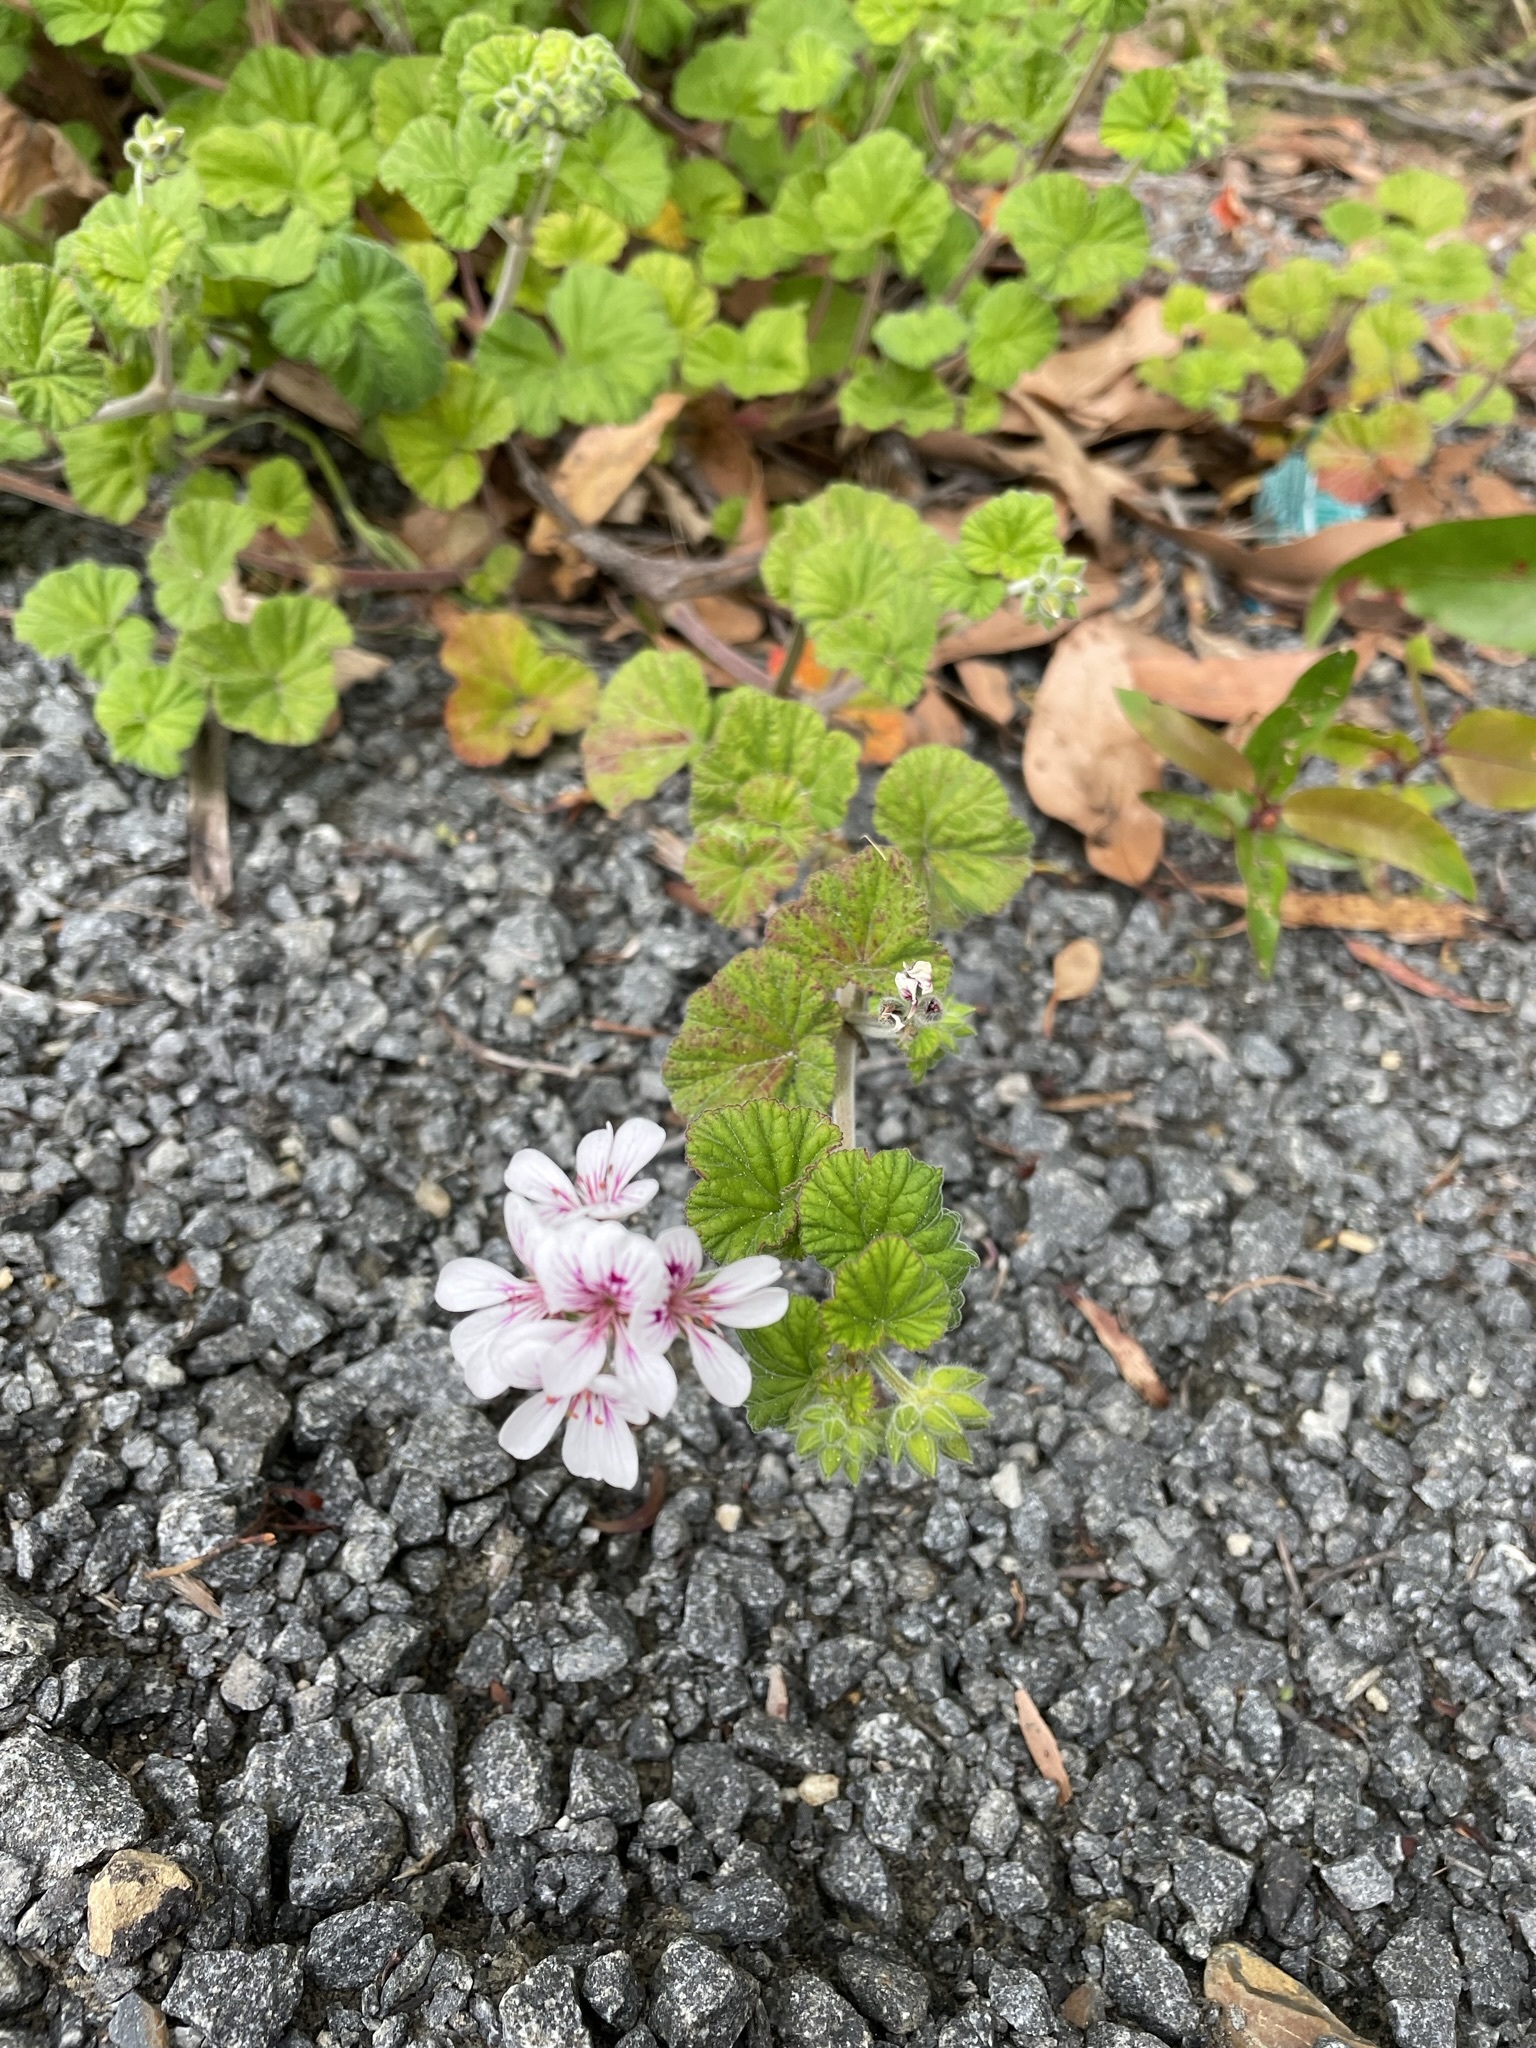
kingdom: Plantae
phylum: Tracheophyta
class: Magnoliopsida
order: Geraniales
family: Geraniaceae
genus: Pelargonium
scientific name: Pelargonium australe
